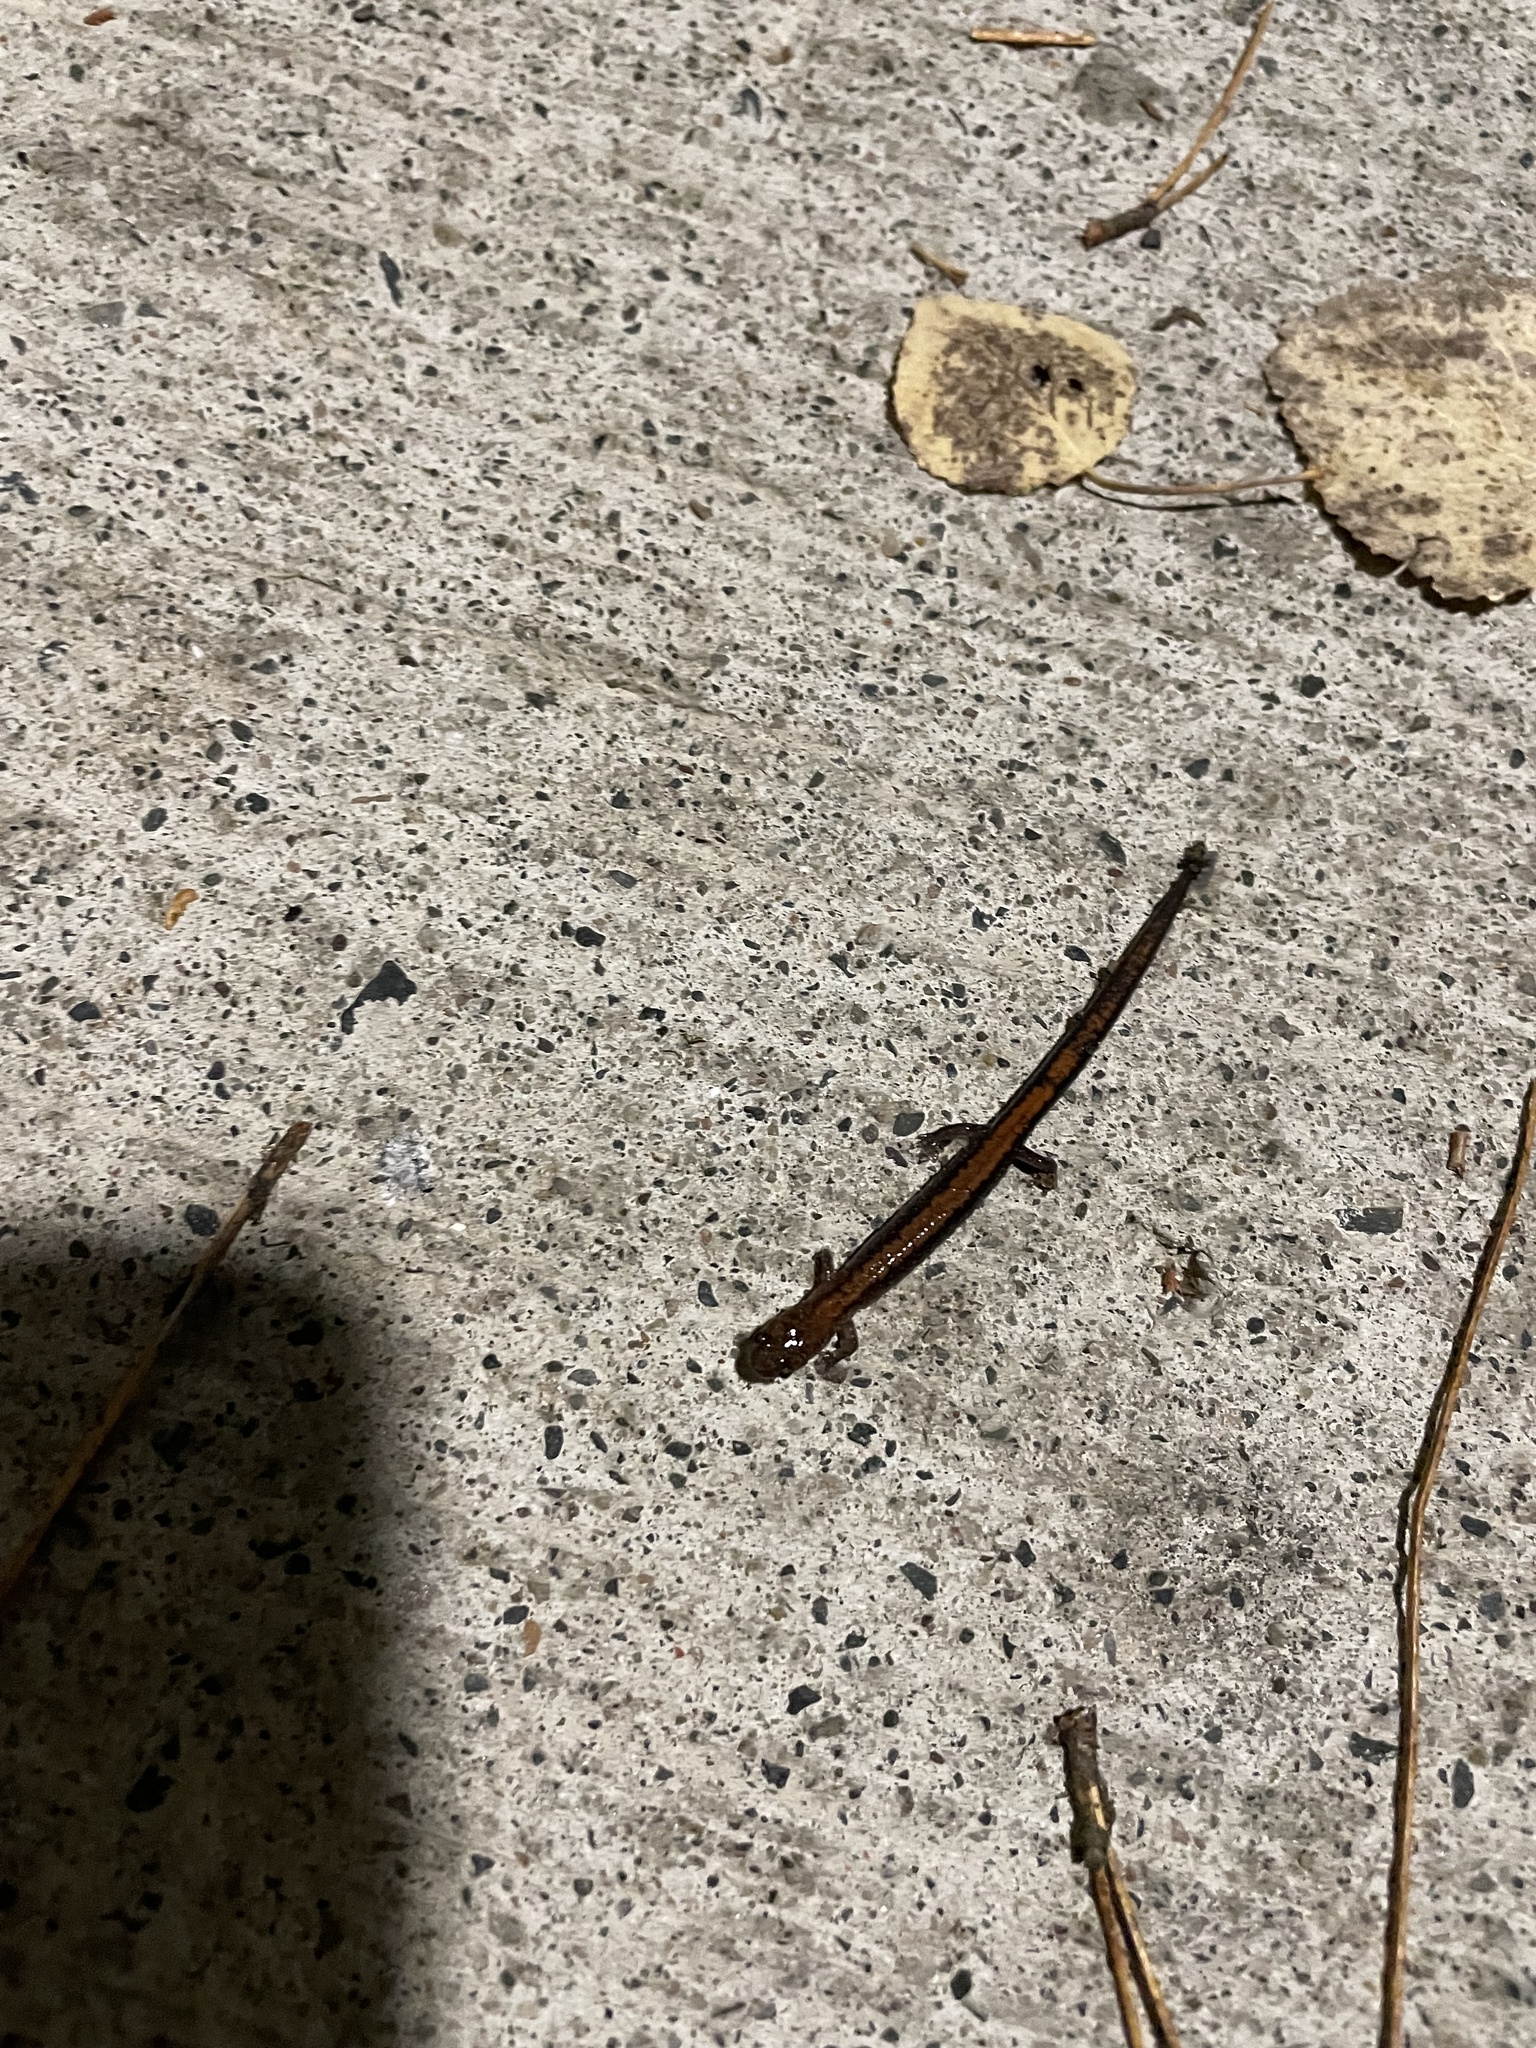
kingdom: Animalia
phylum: Chordata
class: Amphibia
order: Caudata
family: Plethodontidae
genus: Plethodon
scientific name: Plethodon cinereus
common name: Redback salamander
